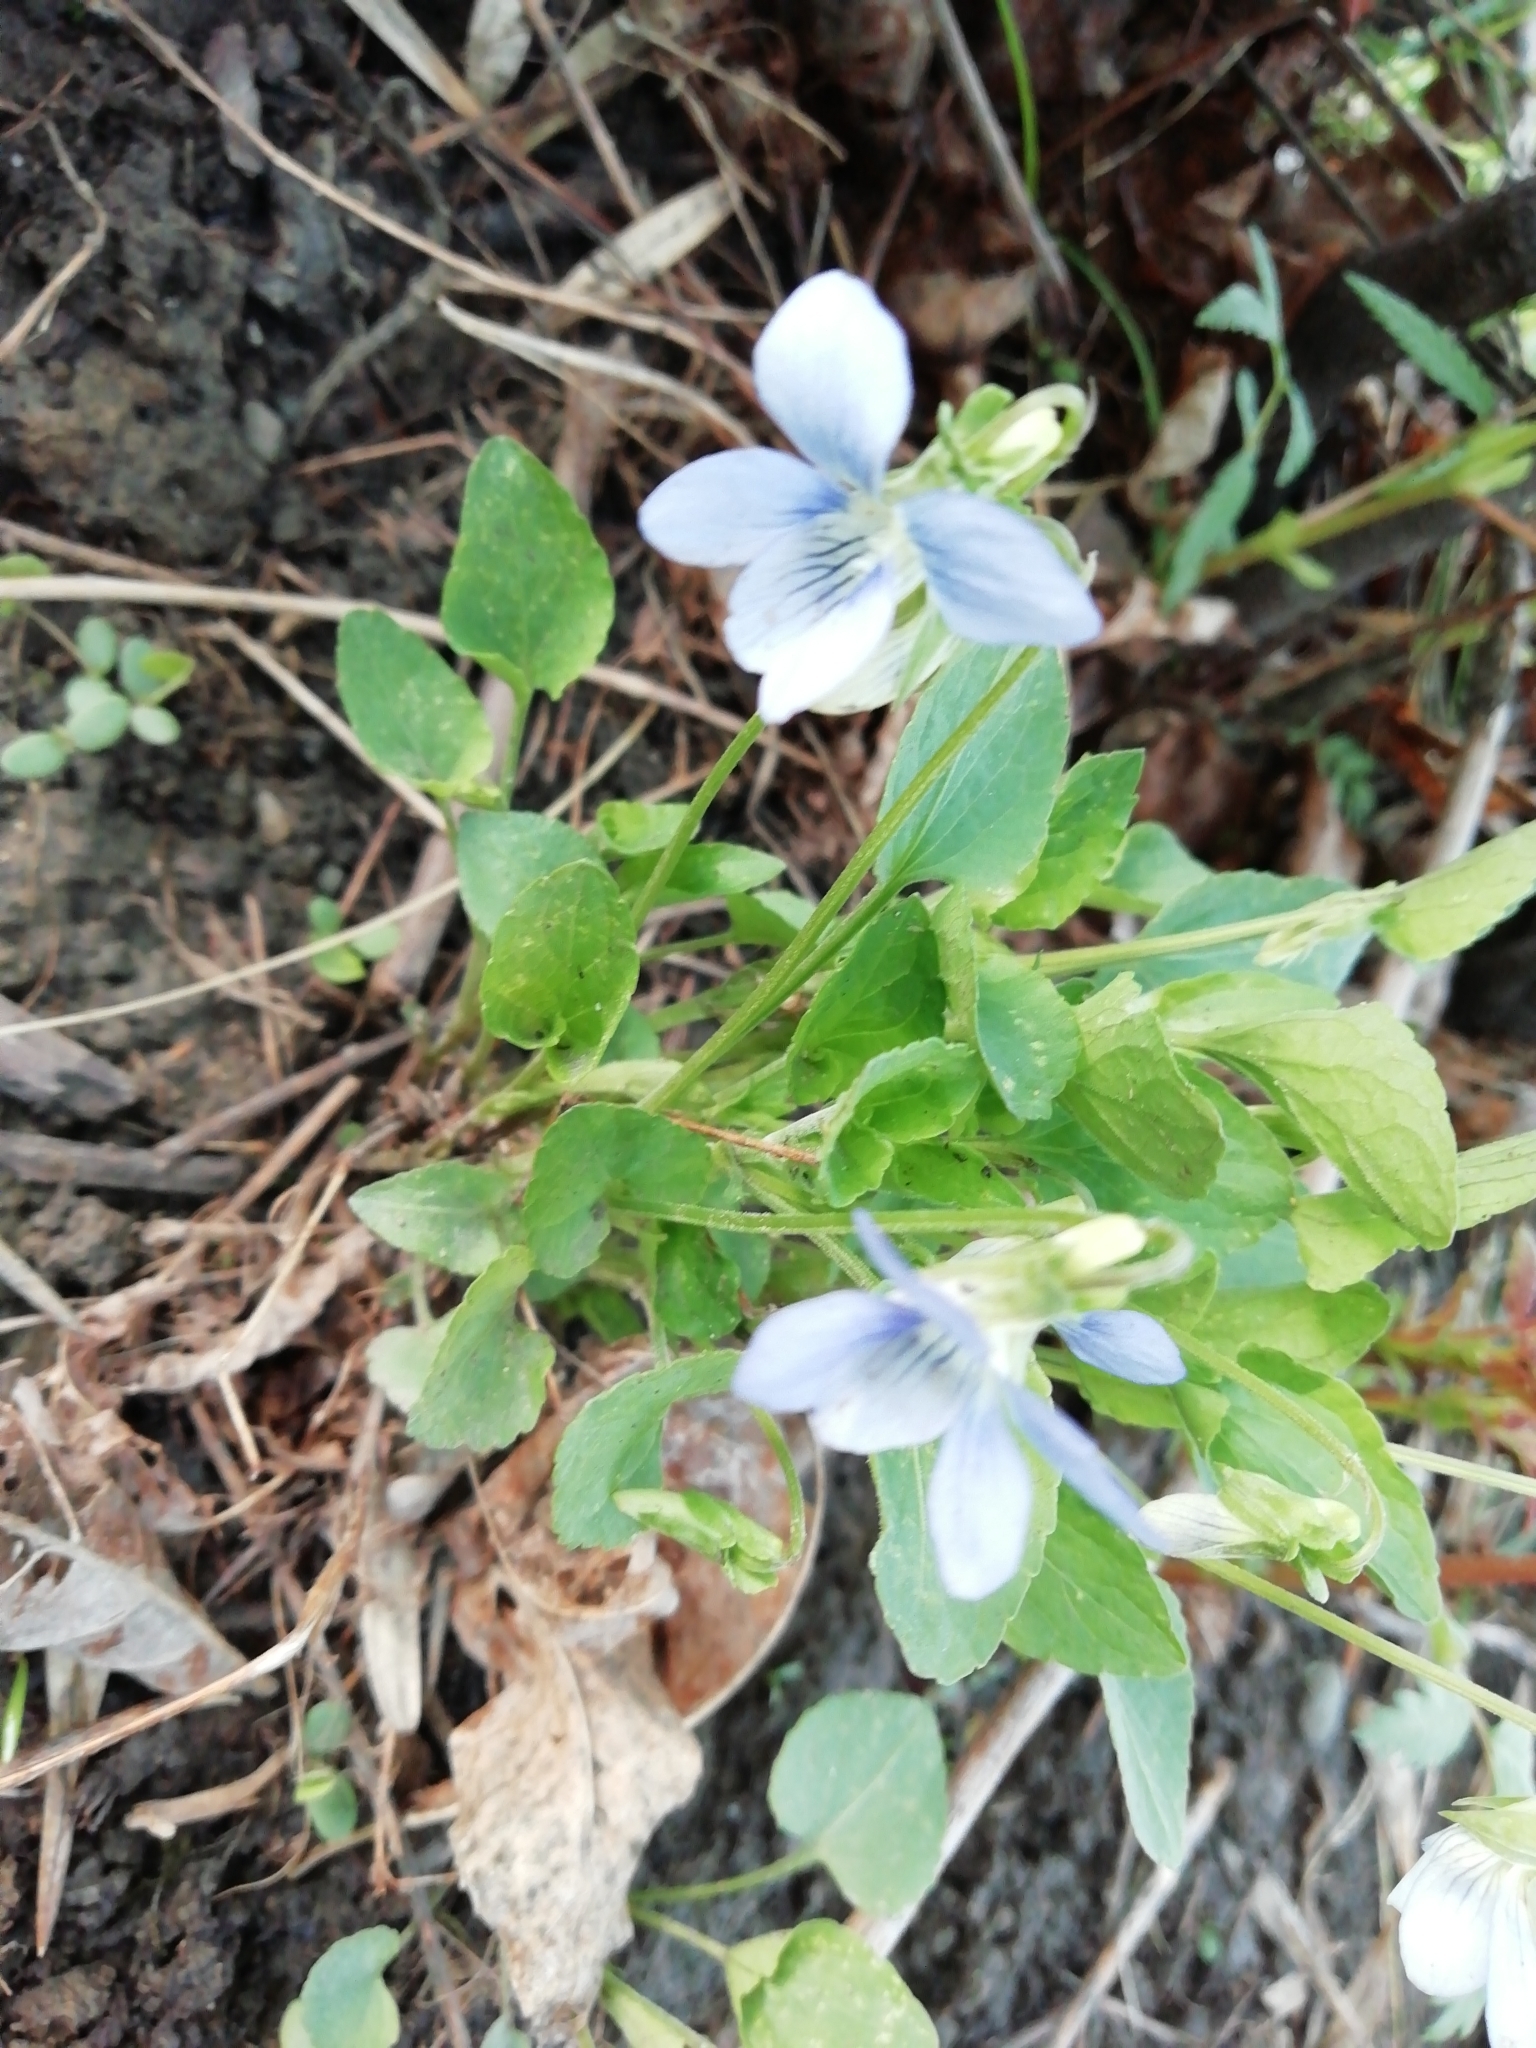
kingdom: Plantae
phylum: Tracheophyta
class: Magnoliopsida
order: Malpighiales
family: Violaceae
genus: Viola
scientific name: Viola
